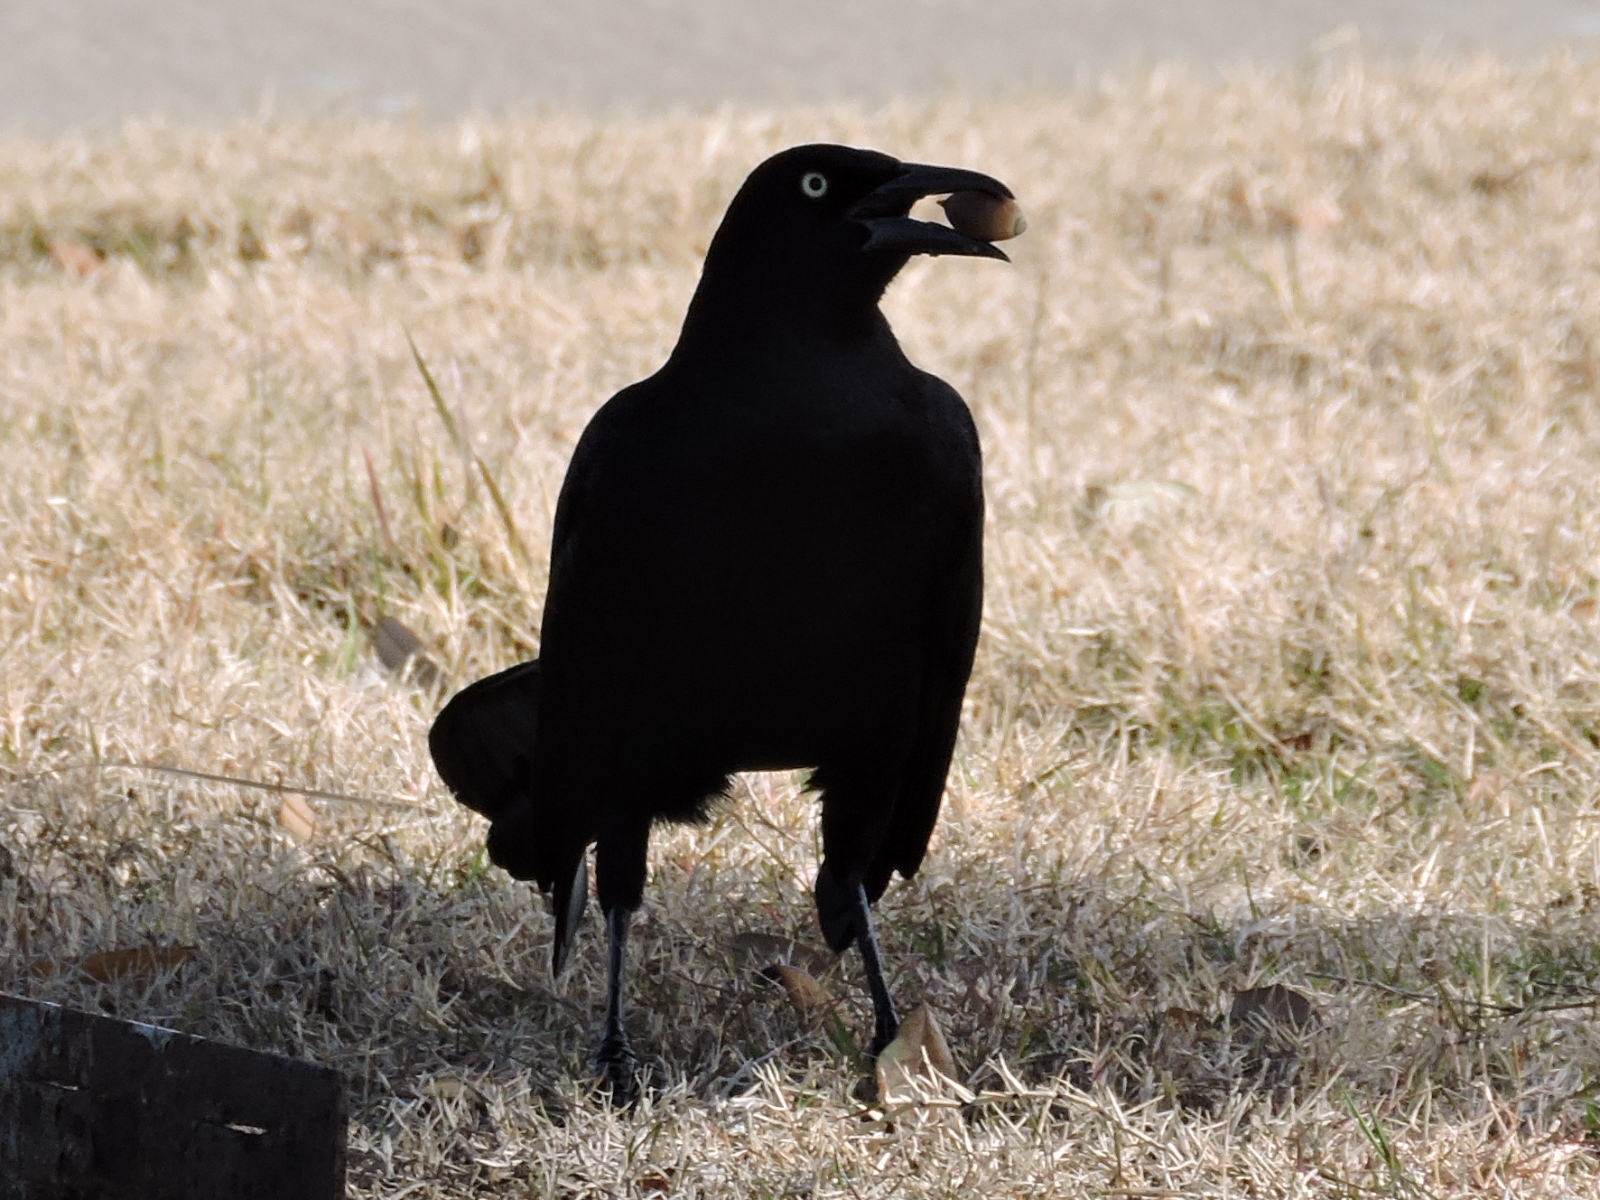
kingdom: Animalia
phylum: Chordata
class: Aves
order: Passeriformes
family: Icteridae
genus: Quiscalus
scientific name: Quiscalus mexicanus
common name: Great-tailed grackle
